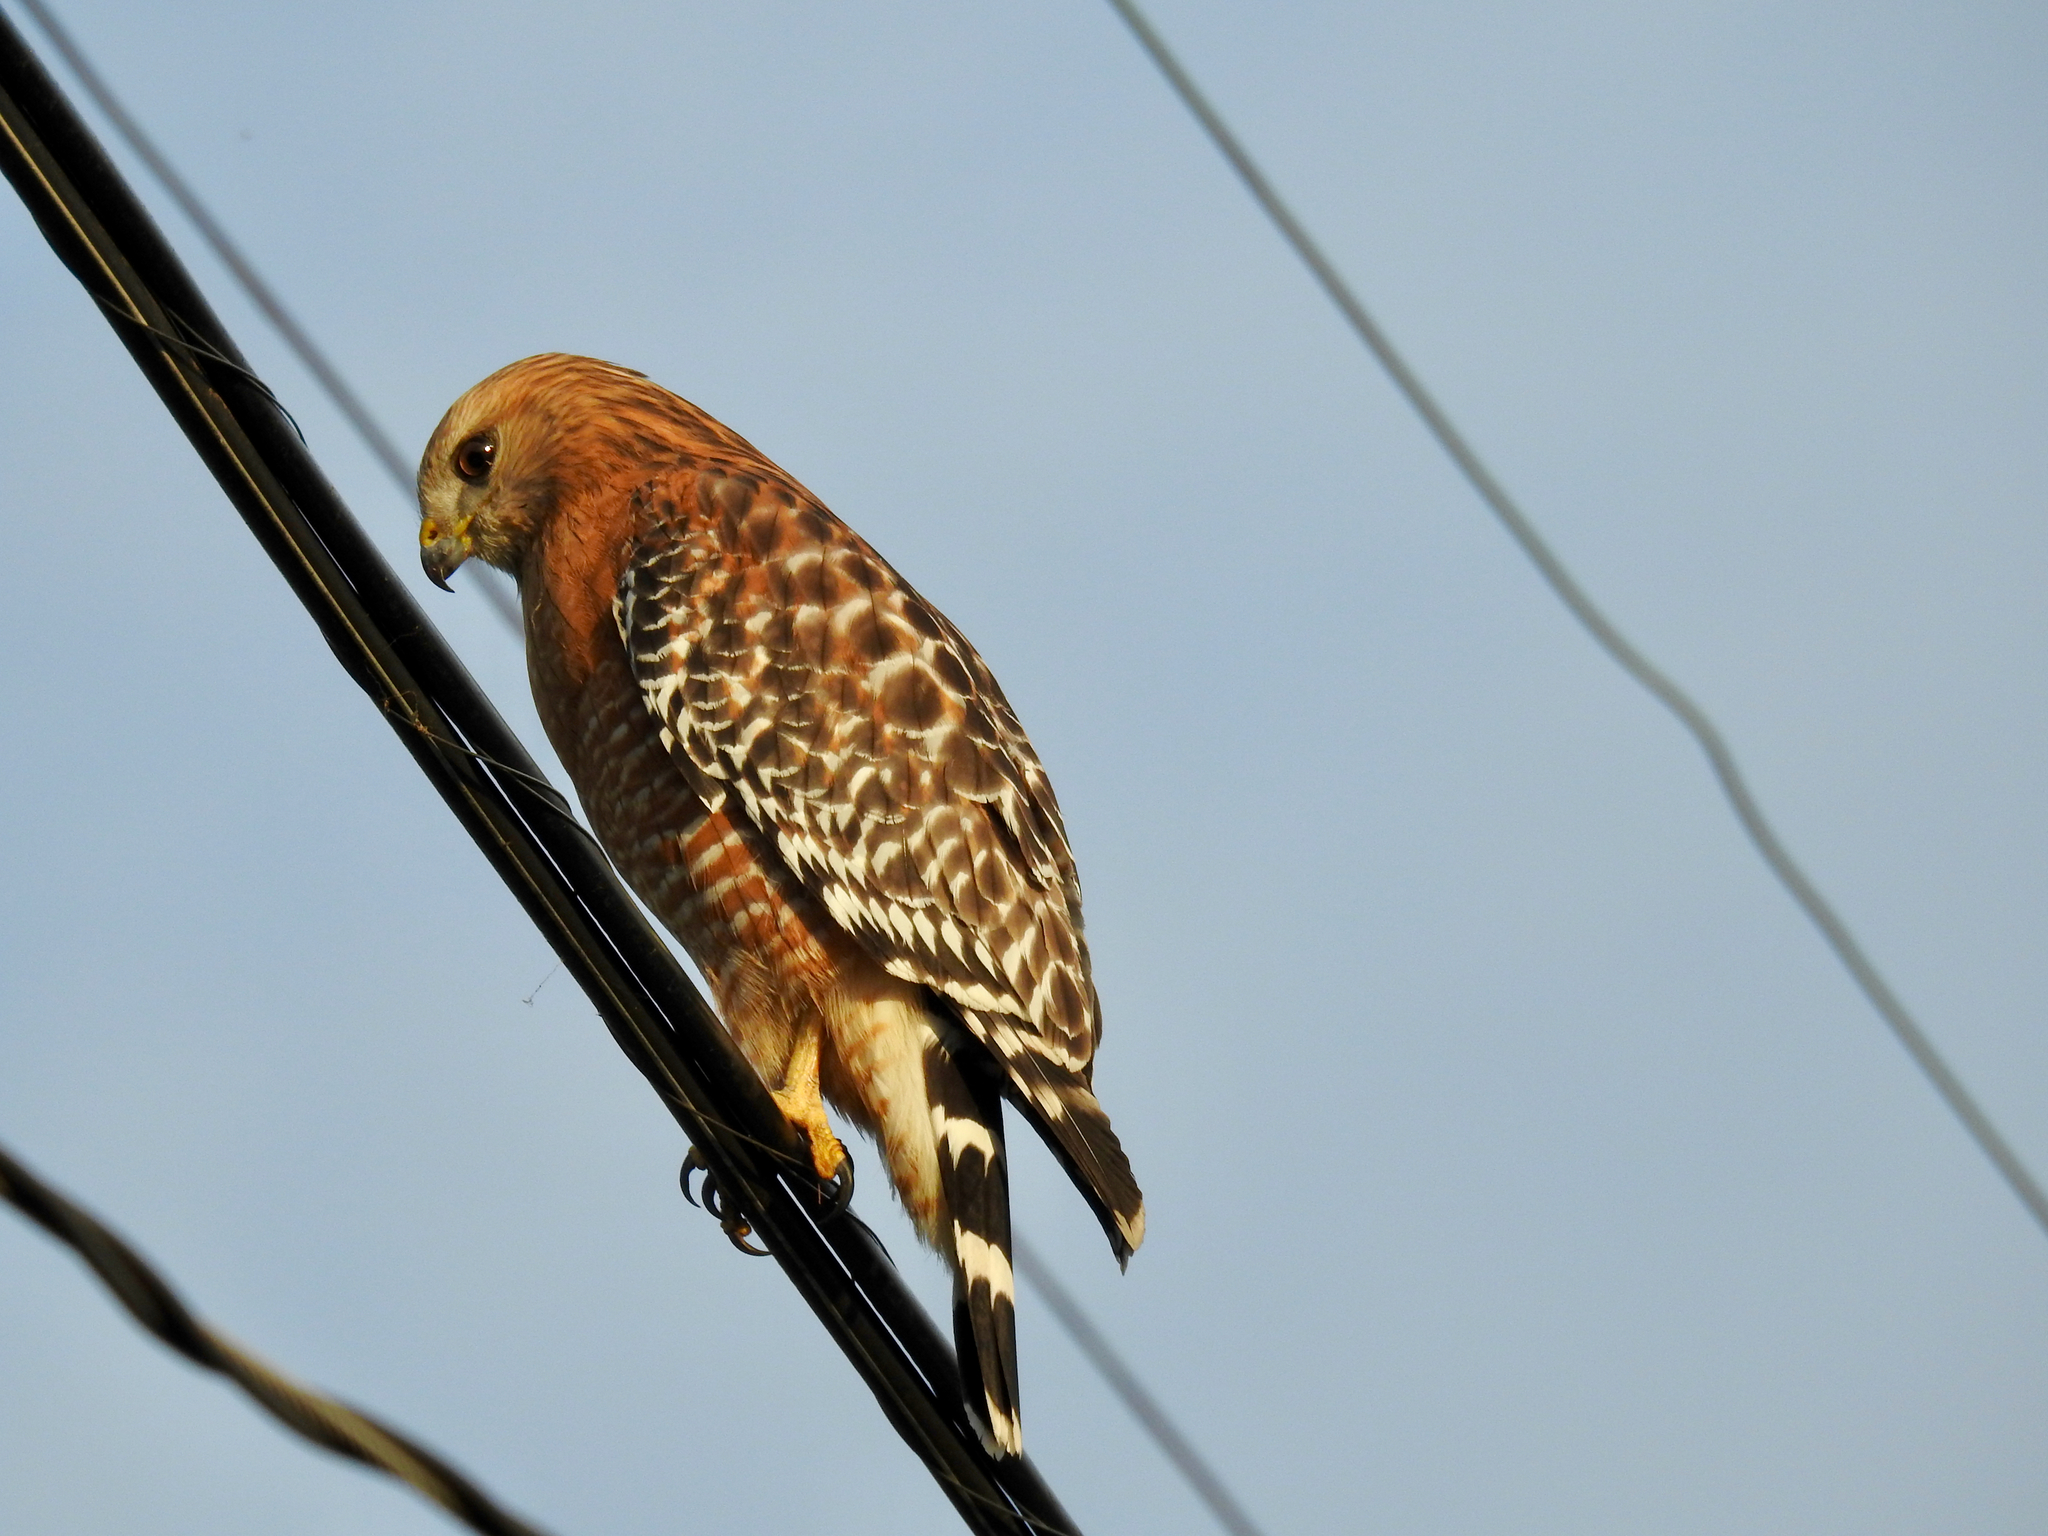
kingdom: Animalia
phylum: Chordata
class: Aves
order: Accipitriformes
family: Accipitridae
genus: Buteo
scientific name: Buteo lineatus
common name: Red-shouldered hawk
